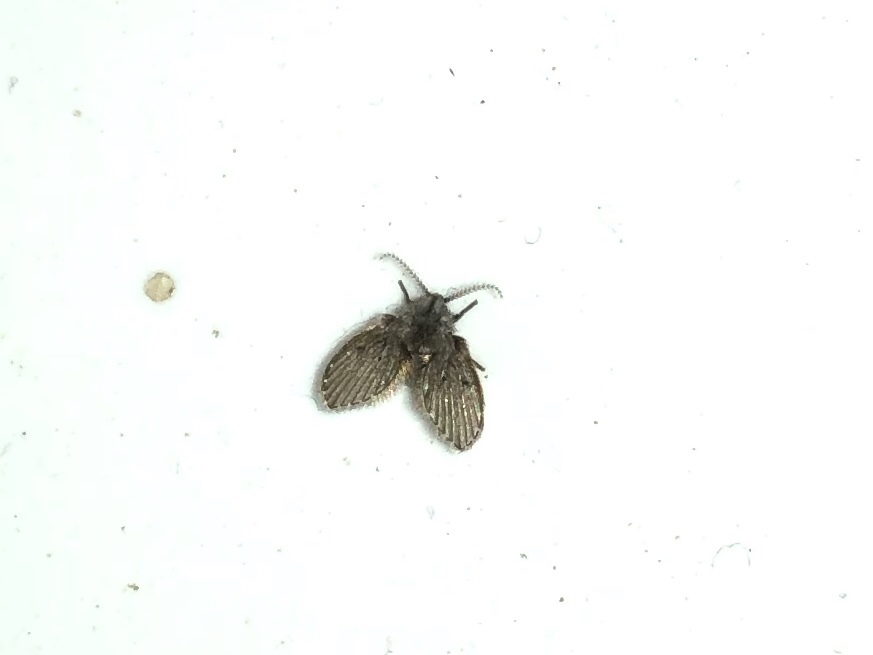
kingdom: Animalia
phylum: Arthropoda
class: Insecta
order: Diptera
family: Psychodidae
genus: Clogmia
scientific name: Clogmia albipunctatus
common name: White-spotted moth fly
